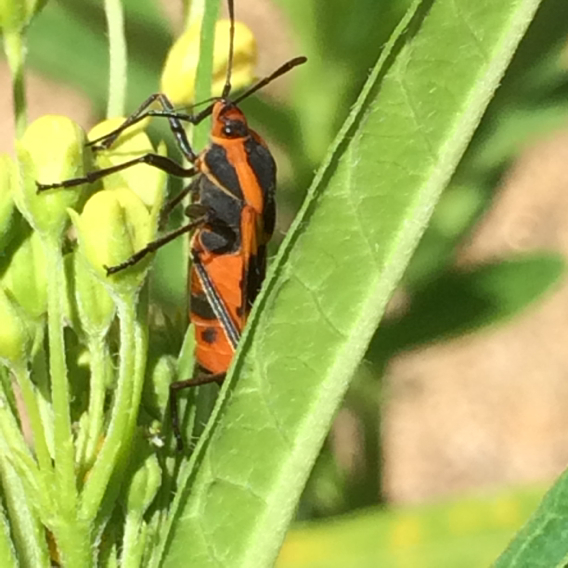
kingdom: Animalia
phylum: Arthropoda
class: Insecta
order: Hemiptera
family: Lygaeidae
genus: Oncopeltus
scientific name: Oncopeltus fasciatus
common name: Large milkweed bug
